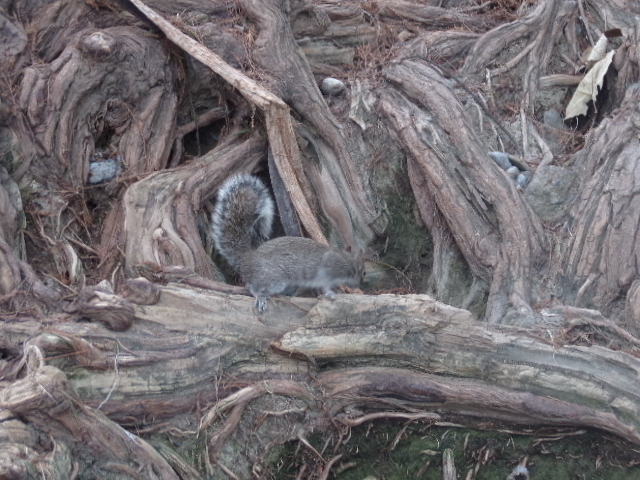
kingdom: Animalia
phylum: Chordata
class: Mammalia
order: Rodentia
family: Sciuridae
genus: Sciurus
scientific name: Sciurus alleni
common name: Allen's squirrel
